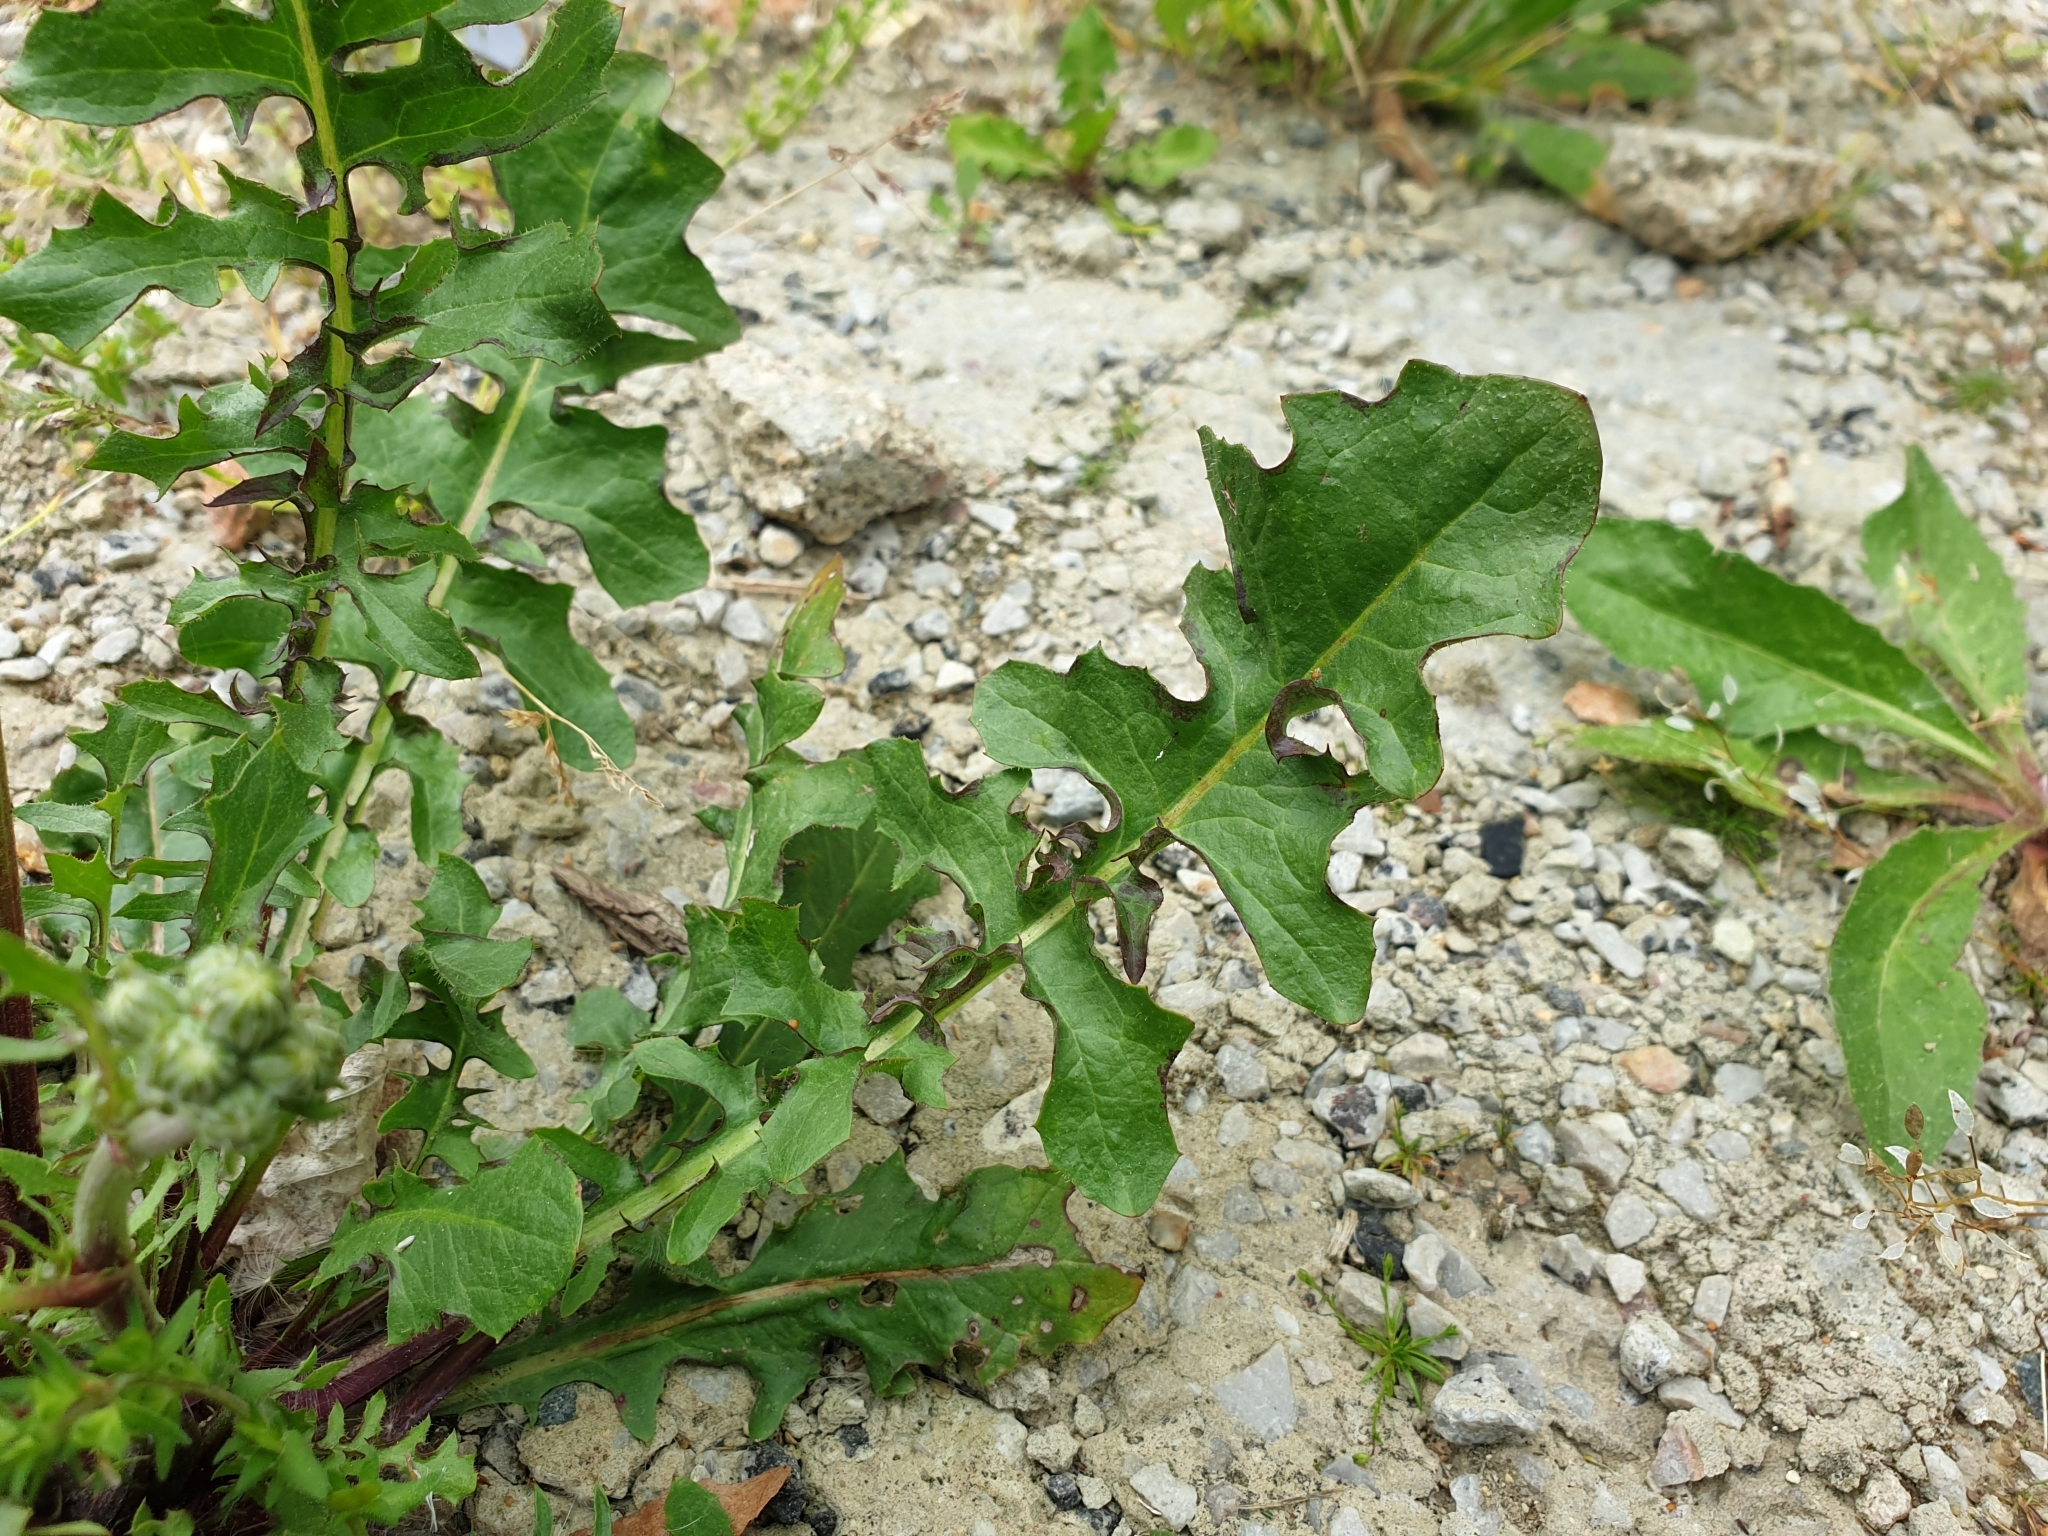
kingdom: Plantae
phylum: Tracheophyta
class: Magnoliopsida
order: Asterales
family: Asteraceae
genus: Crepis
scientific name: Crepis vesicaria
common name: Beaked hawksbeard
